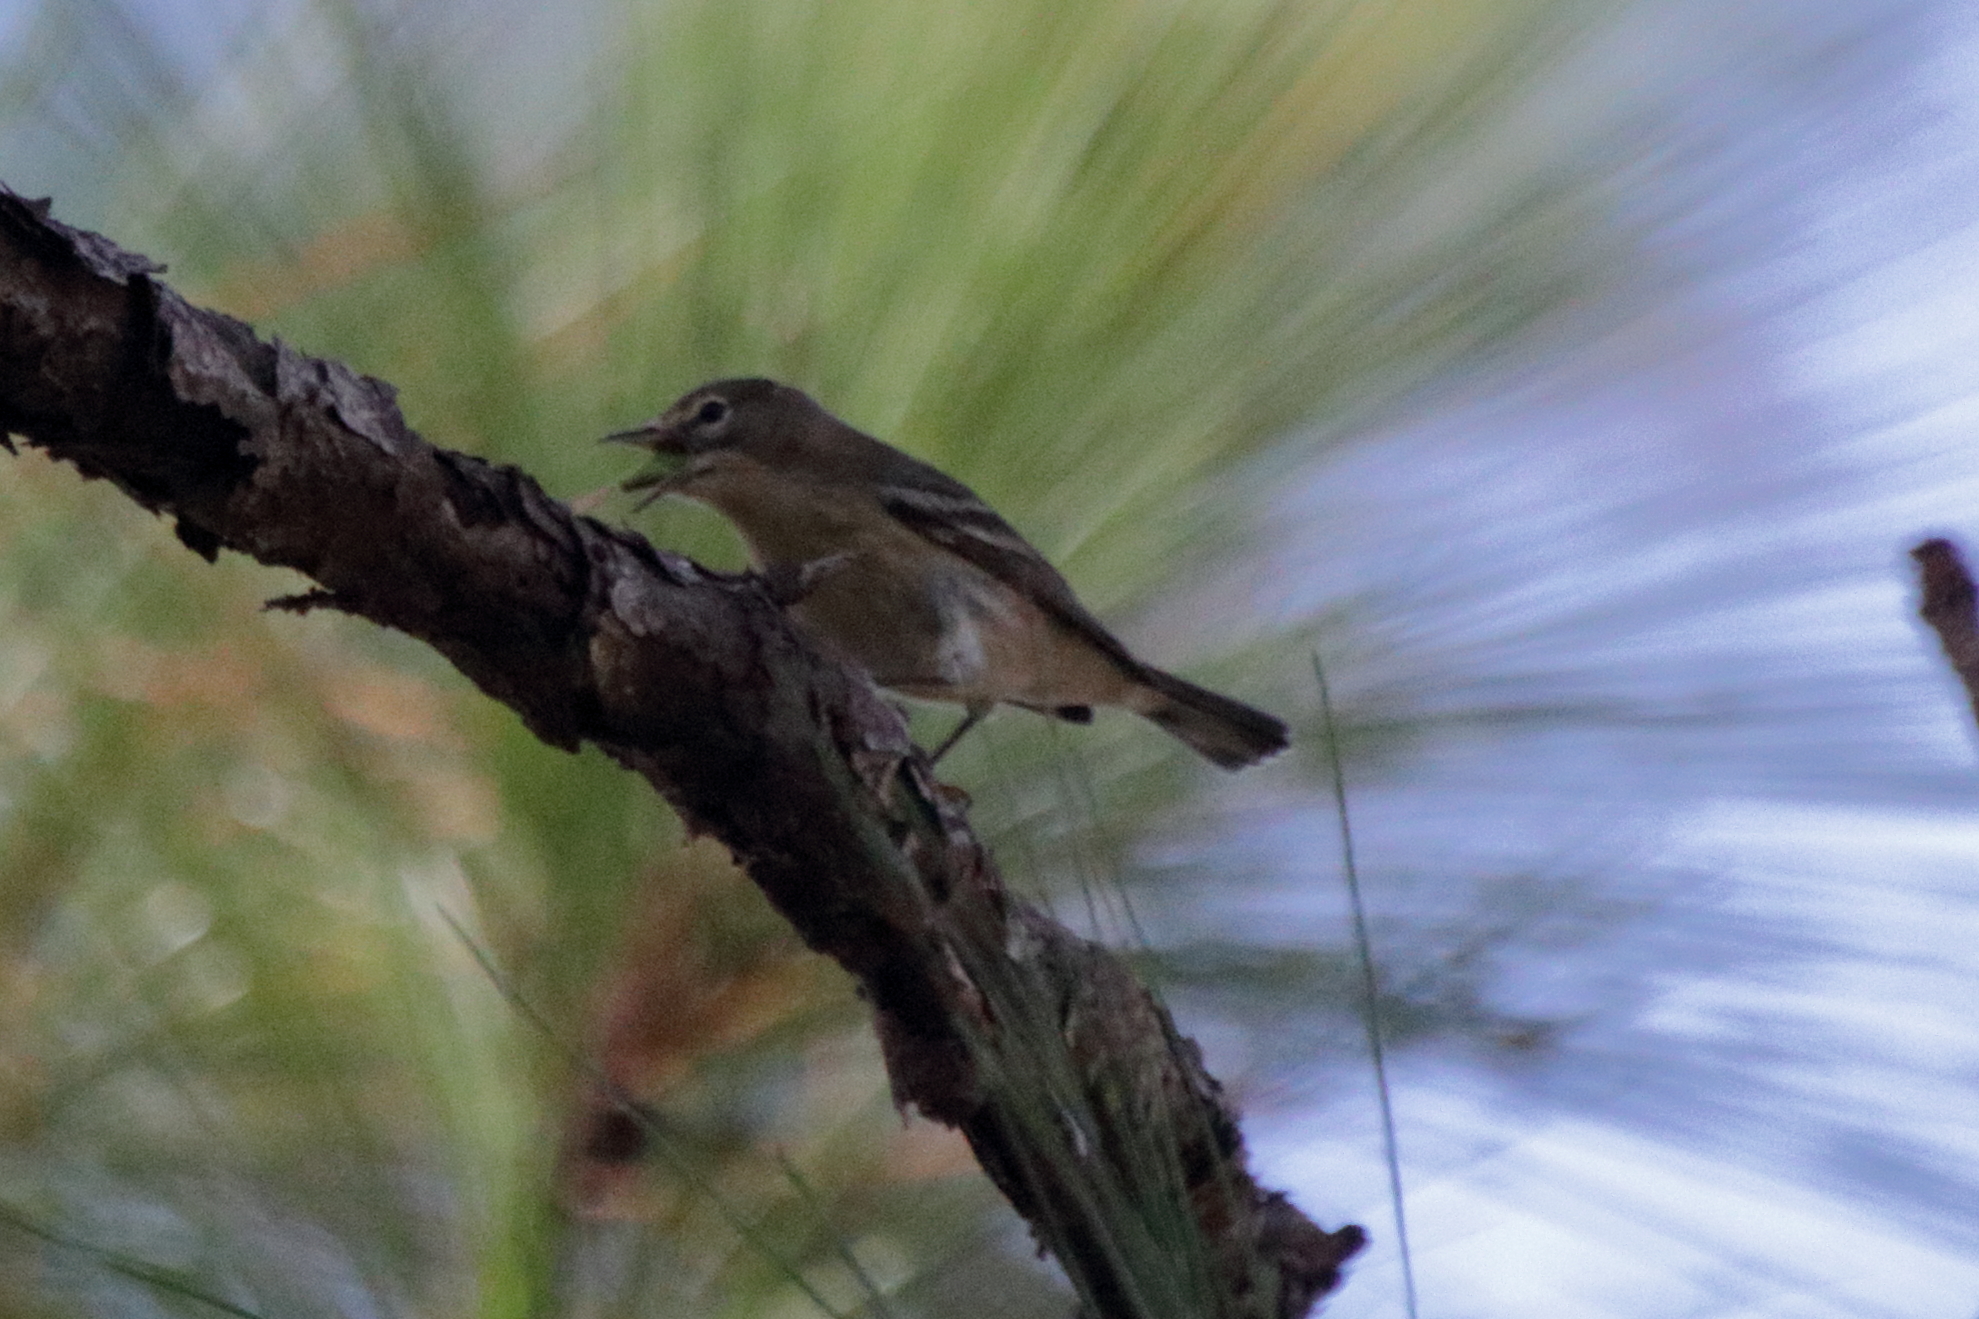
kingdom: Animalia
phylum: Chordata
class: Aves
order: Passeriformes
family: Parulidae
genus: Setophaga
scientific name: Setophaga pinus
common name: Pine warbler
